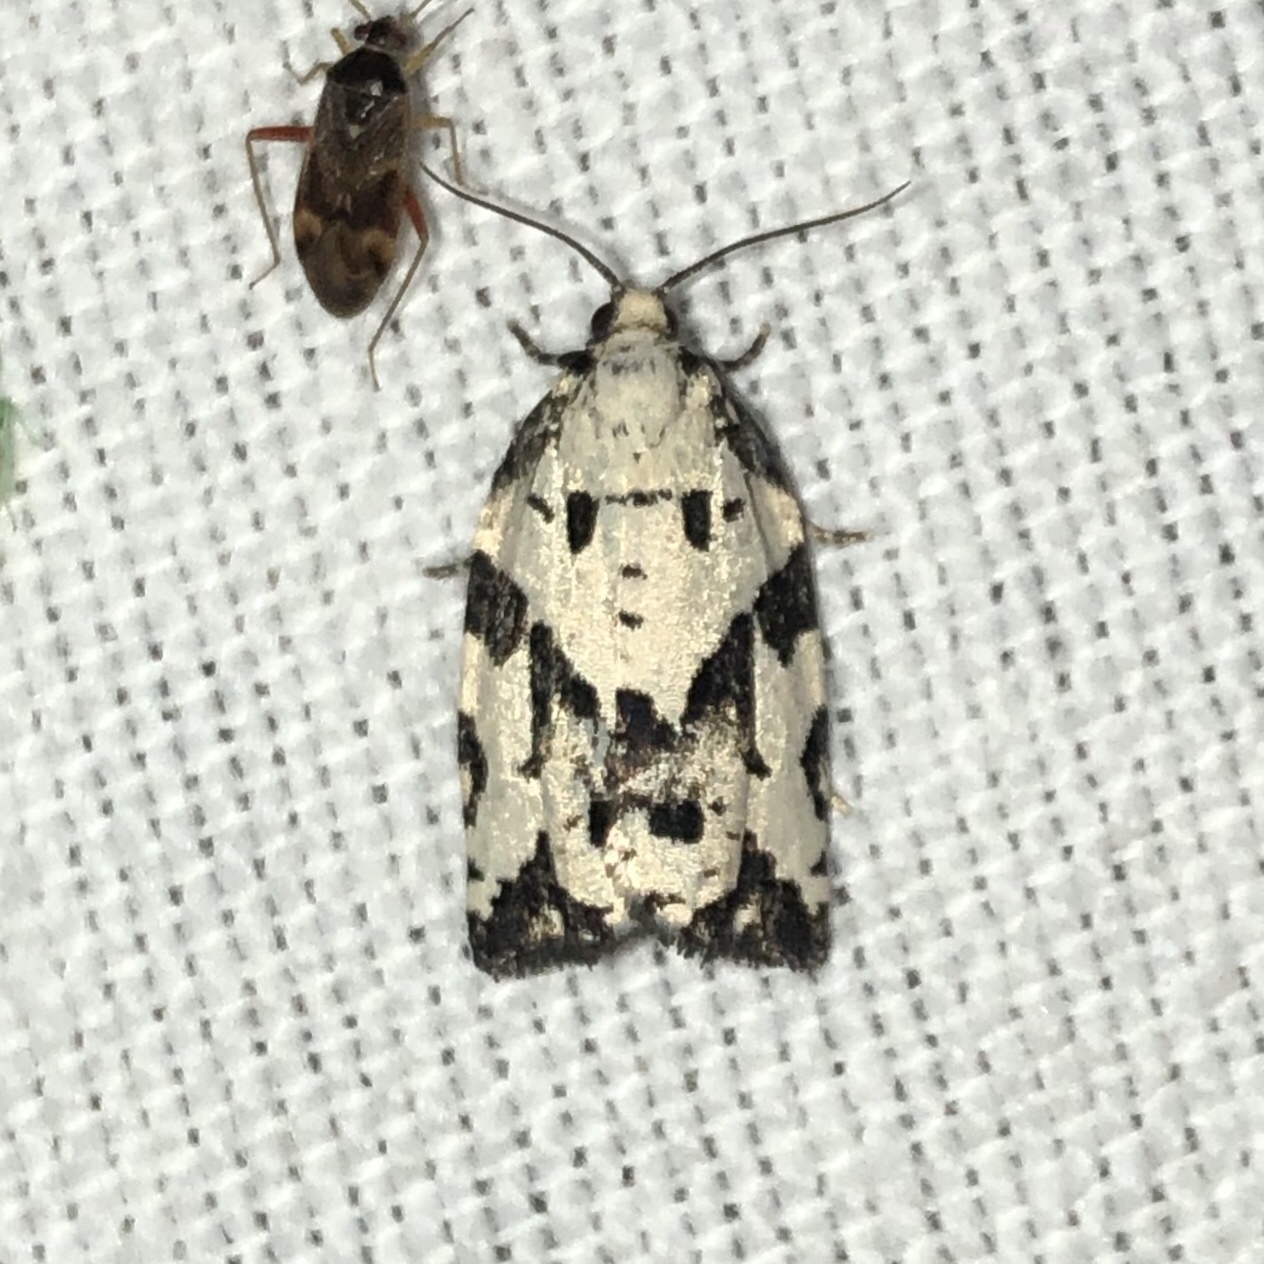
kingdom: Animalia
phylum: Arthropoda
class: Insecta
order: Lepidoptera
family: Tortricidae
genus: Archips
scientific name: Archips dissitana
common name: Boldly-marked archips moth
